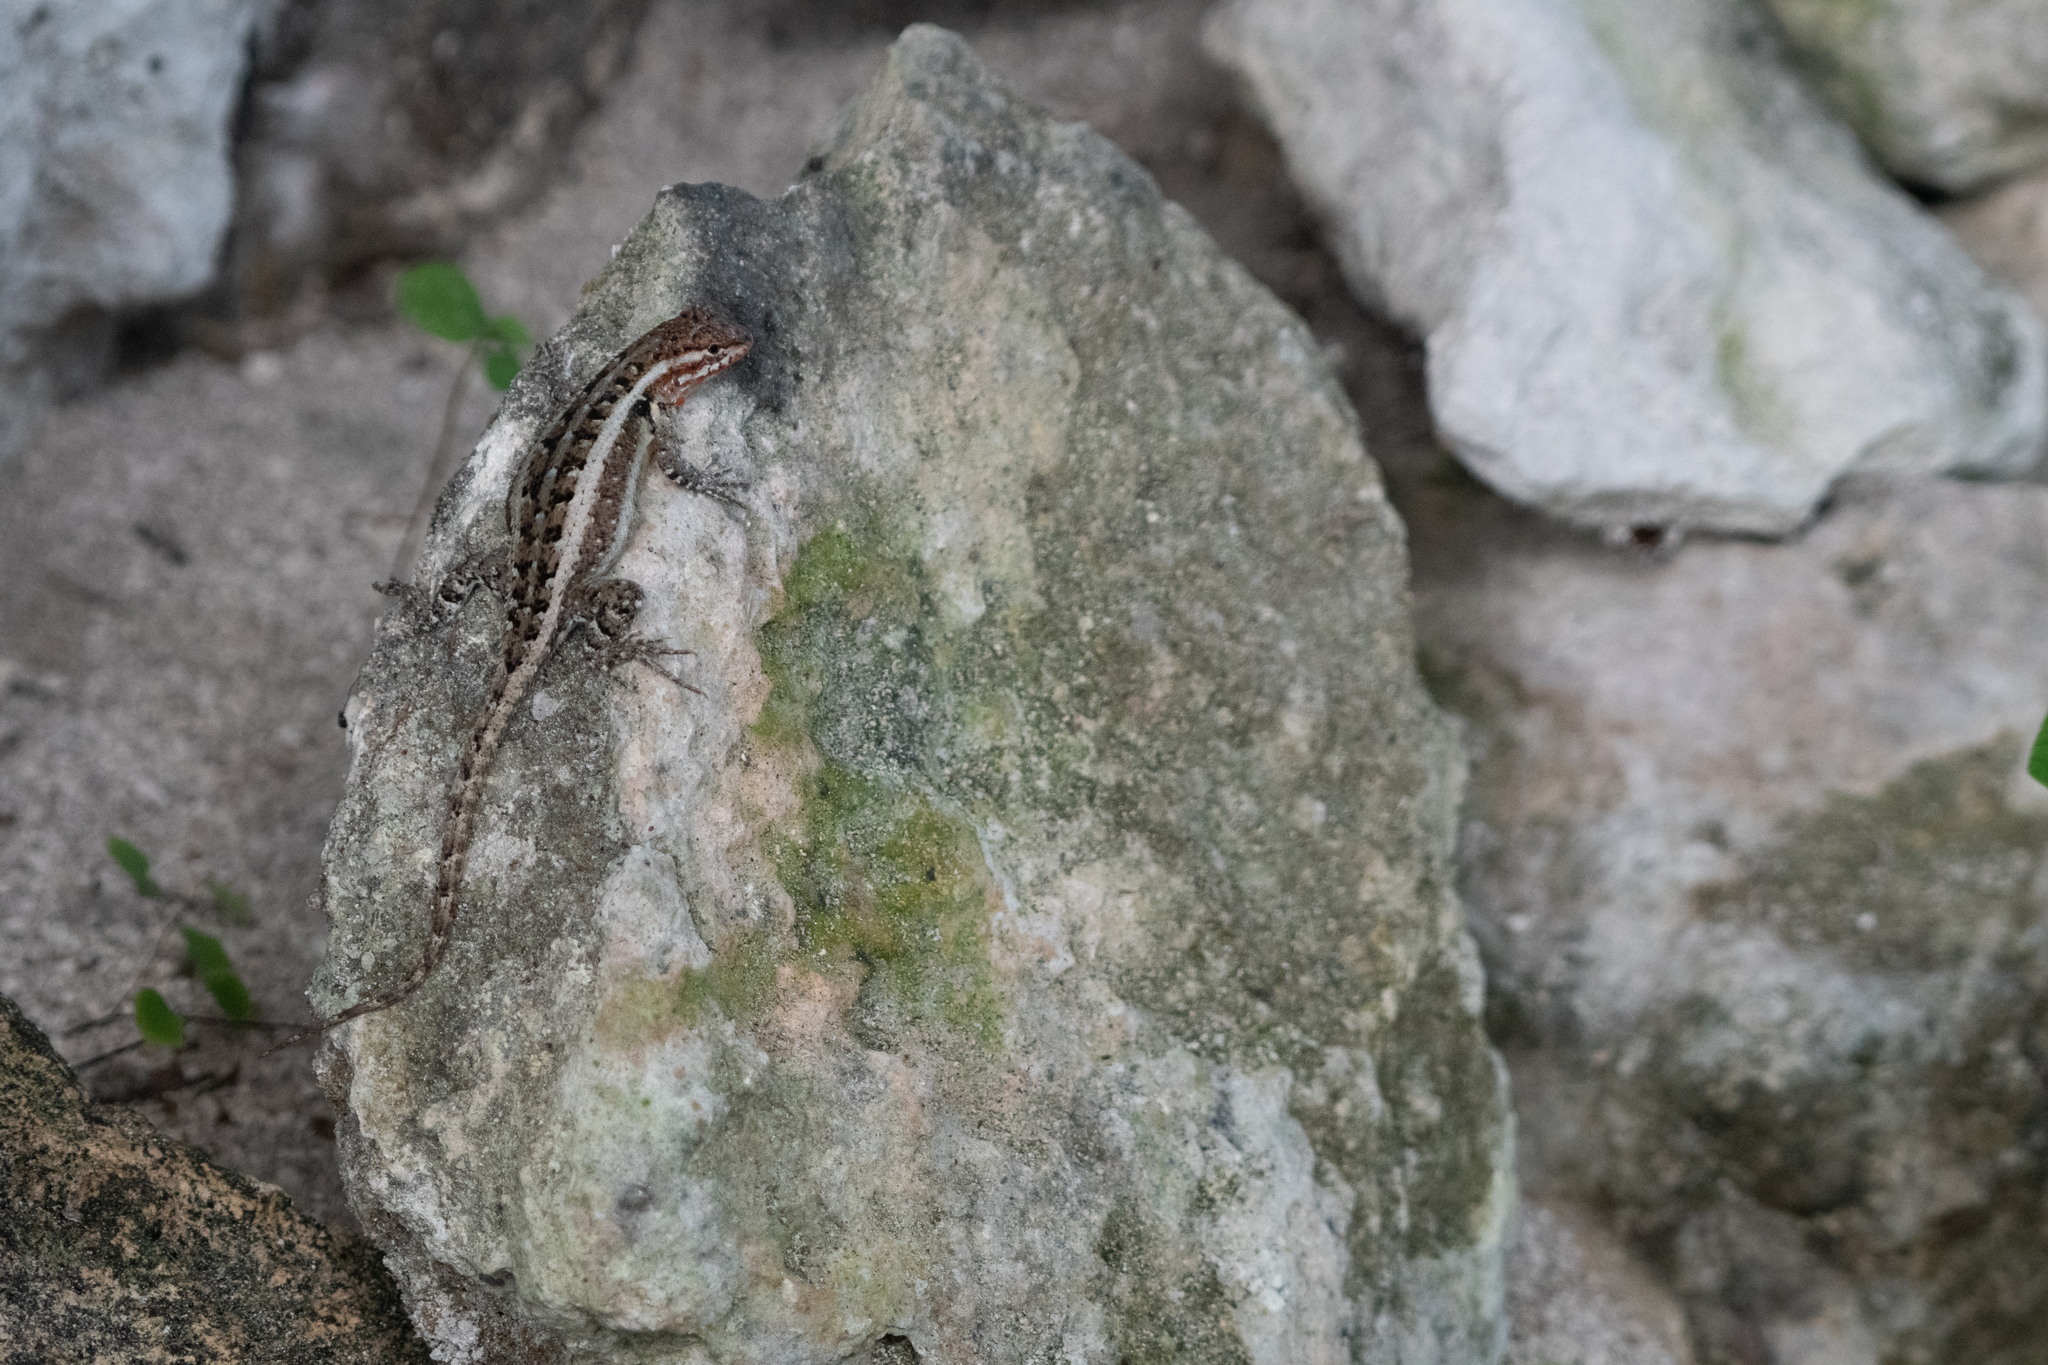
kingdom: Animalia
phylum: Chordata
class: Squamata
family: Phrynosomatidae
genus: Sceloporus
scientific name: Sceloporus variabilis
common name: Rosebelly lizard
